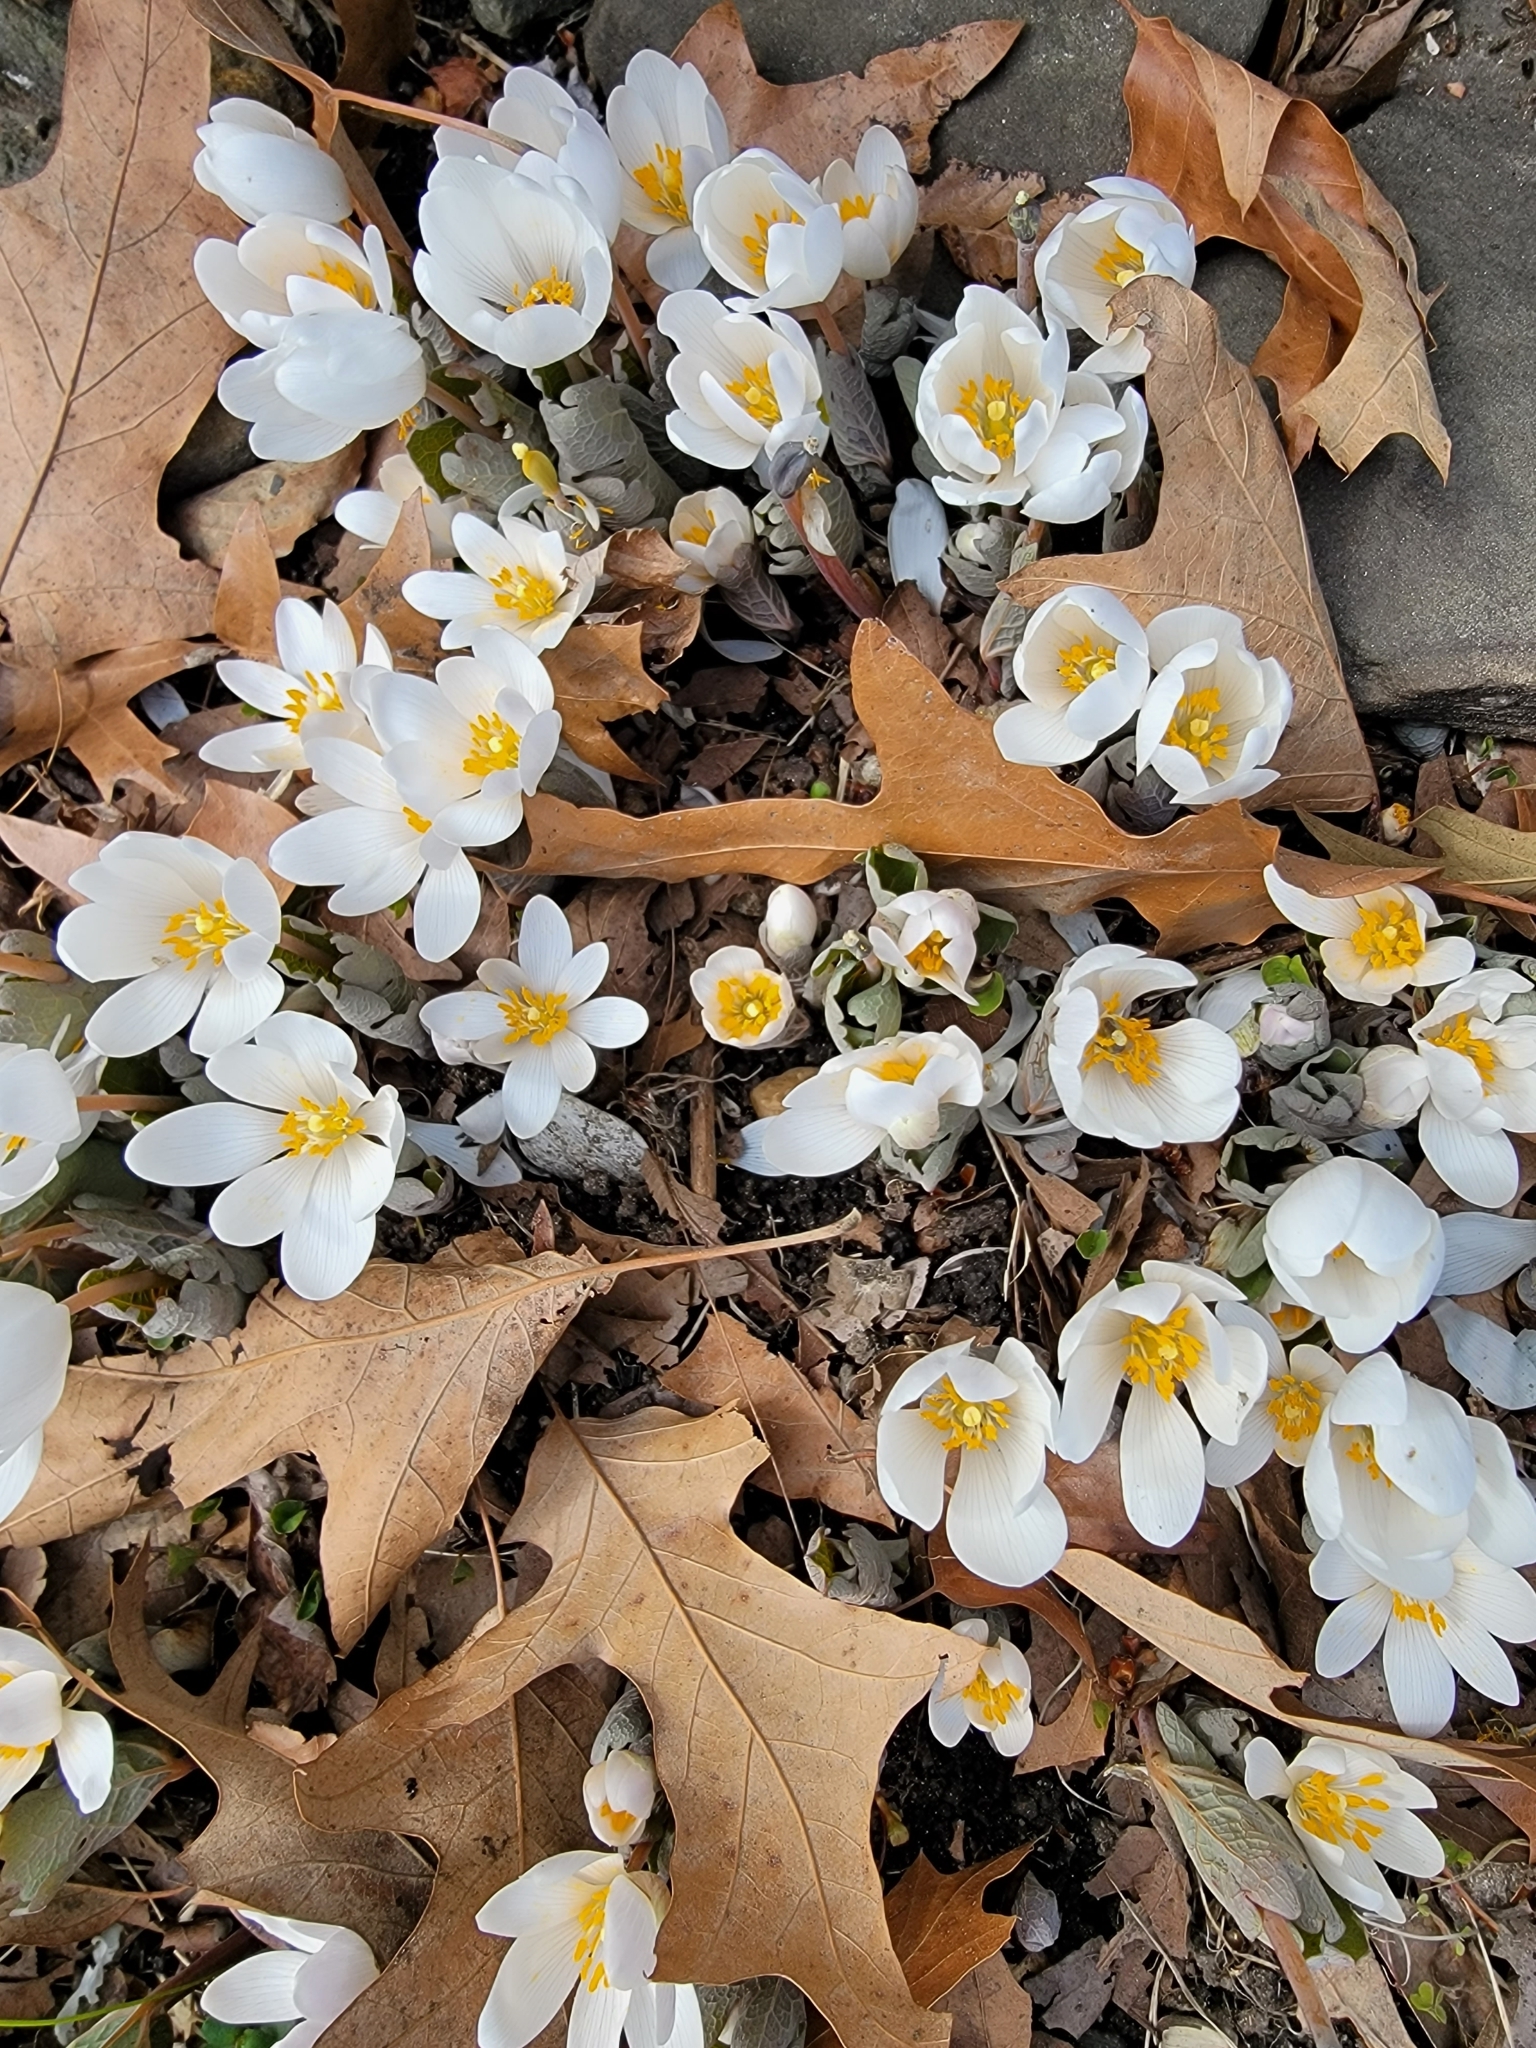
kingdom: Plantae
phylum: Tracheophyta
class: Magnoliopsida
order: Ranunculales
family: Papaveraceae
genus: Sanguinaria
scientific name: Sanguinaria canadensis
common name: Bloodroot
